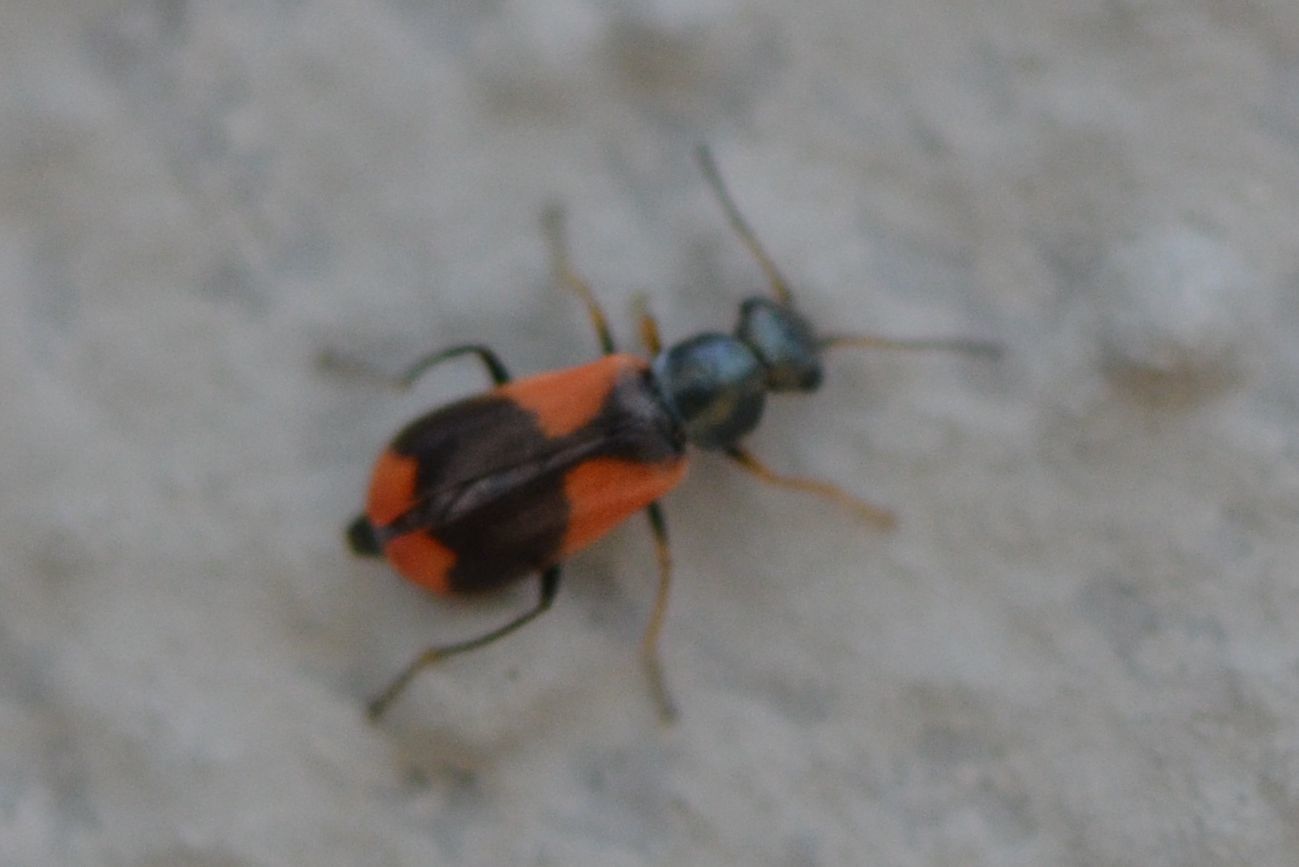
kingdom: Animalia
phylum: Arthropoda
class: Insecta
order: Coleoptera
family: Melyridae
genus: Anthocomus
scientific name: Anthocomus equestris
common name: Black-banded soft-winged flower beetle
